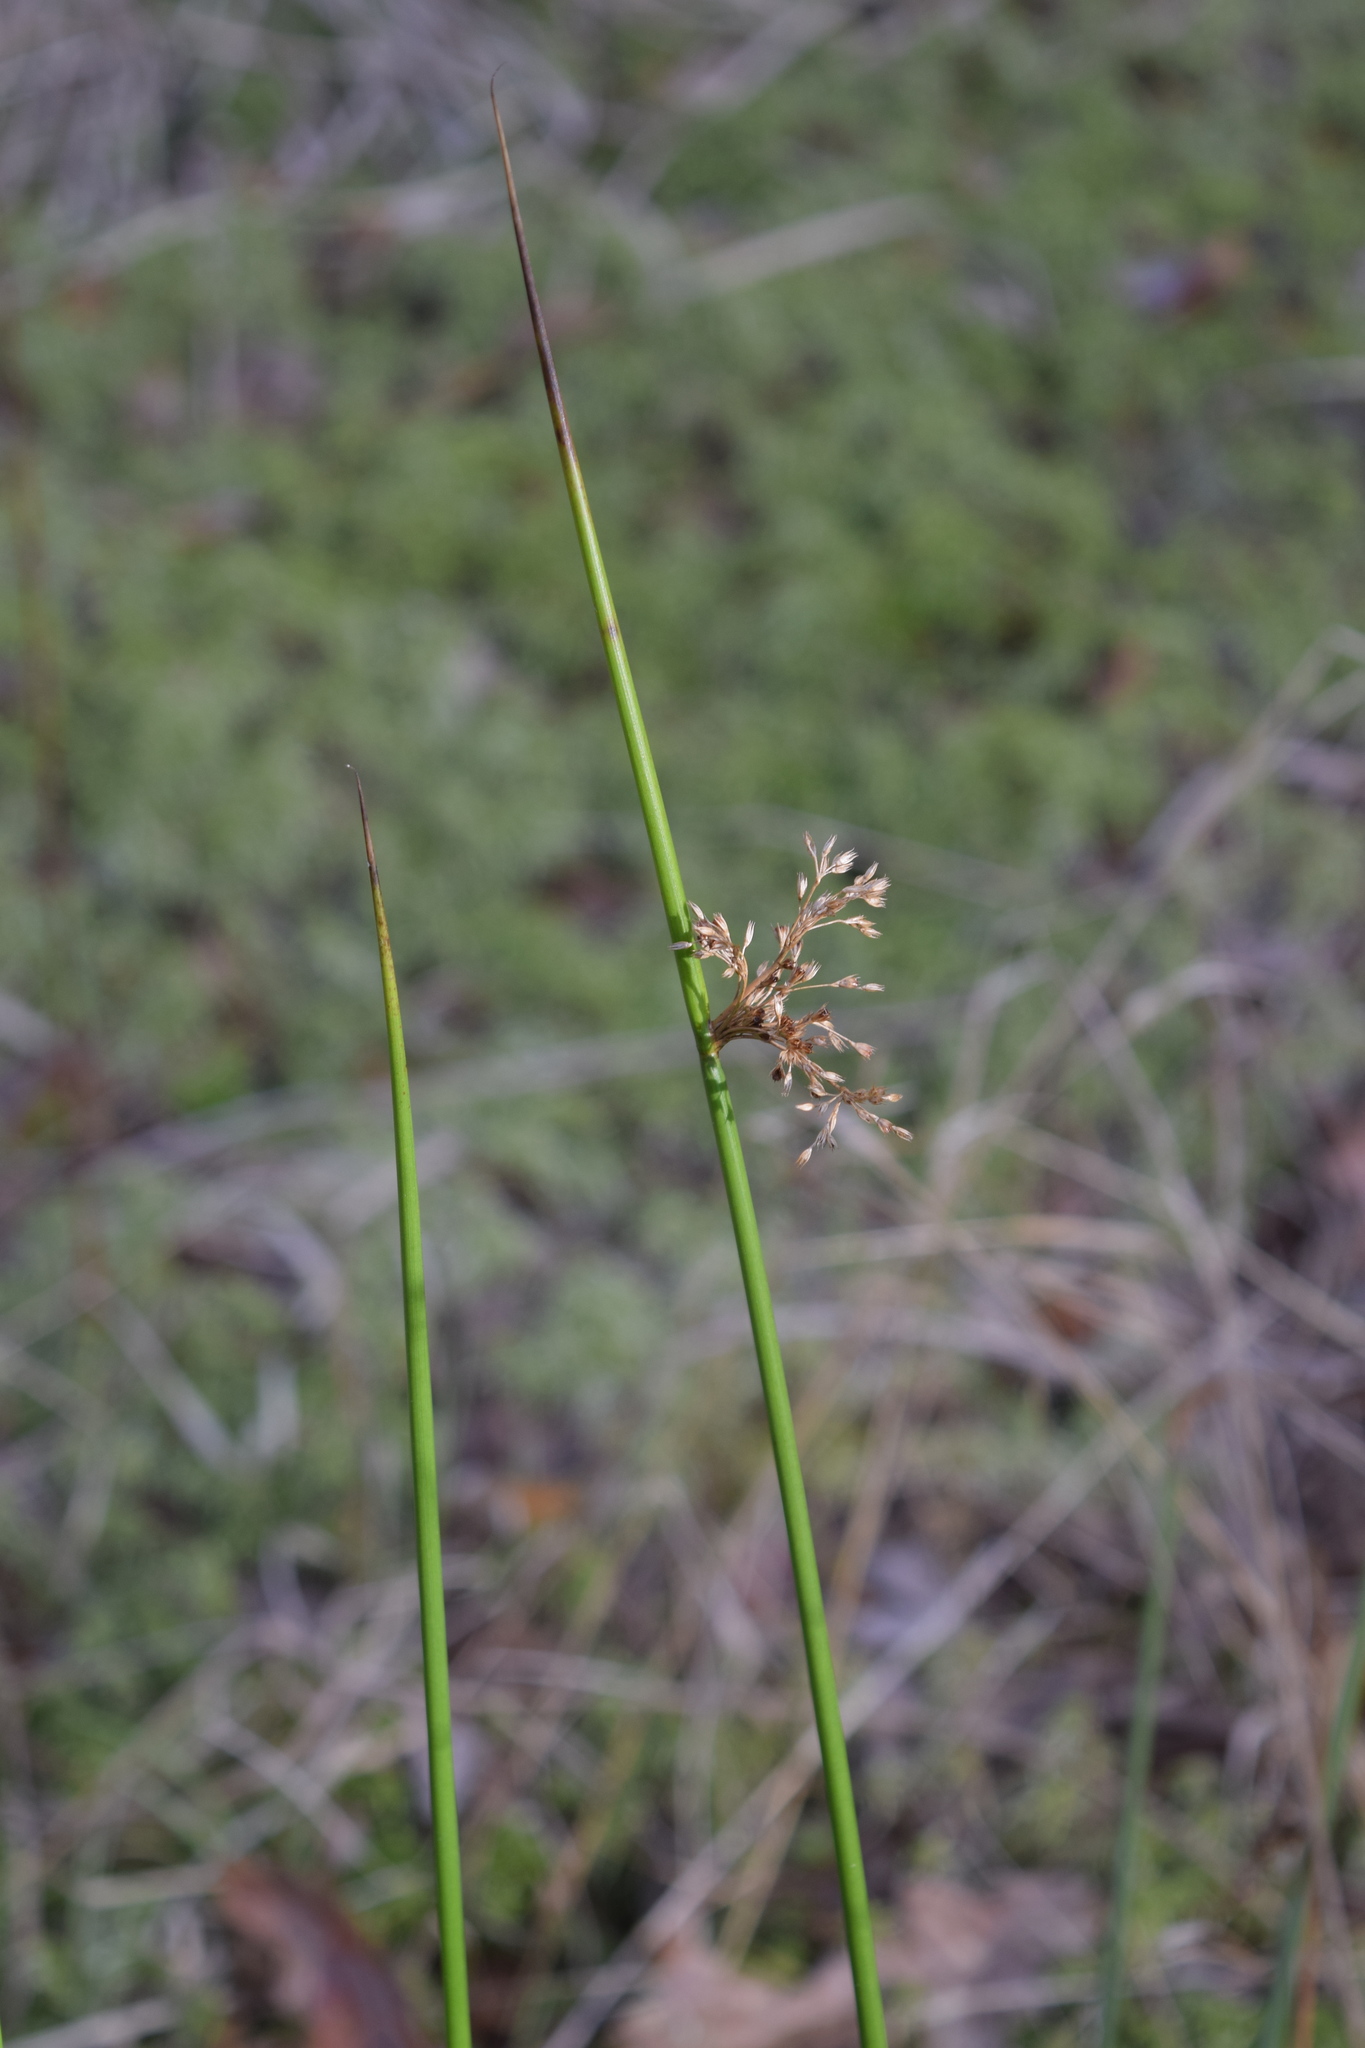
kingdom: Plantae
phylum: Tracheophyta
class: Liliopsida
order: Poales
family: Juncaceae
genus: Juncus
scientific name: Juncus effusus
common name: Soft rush
